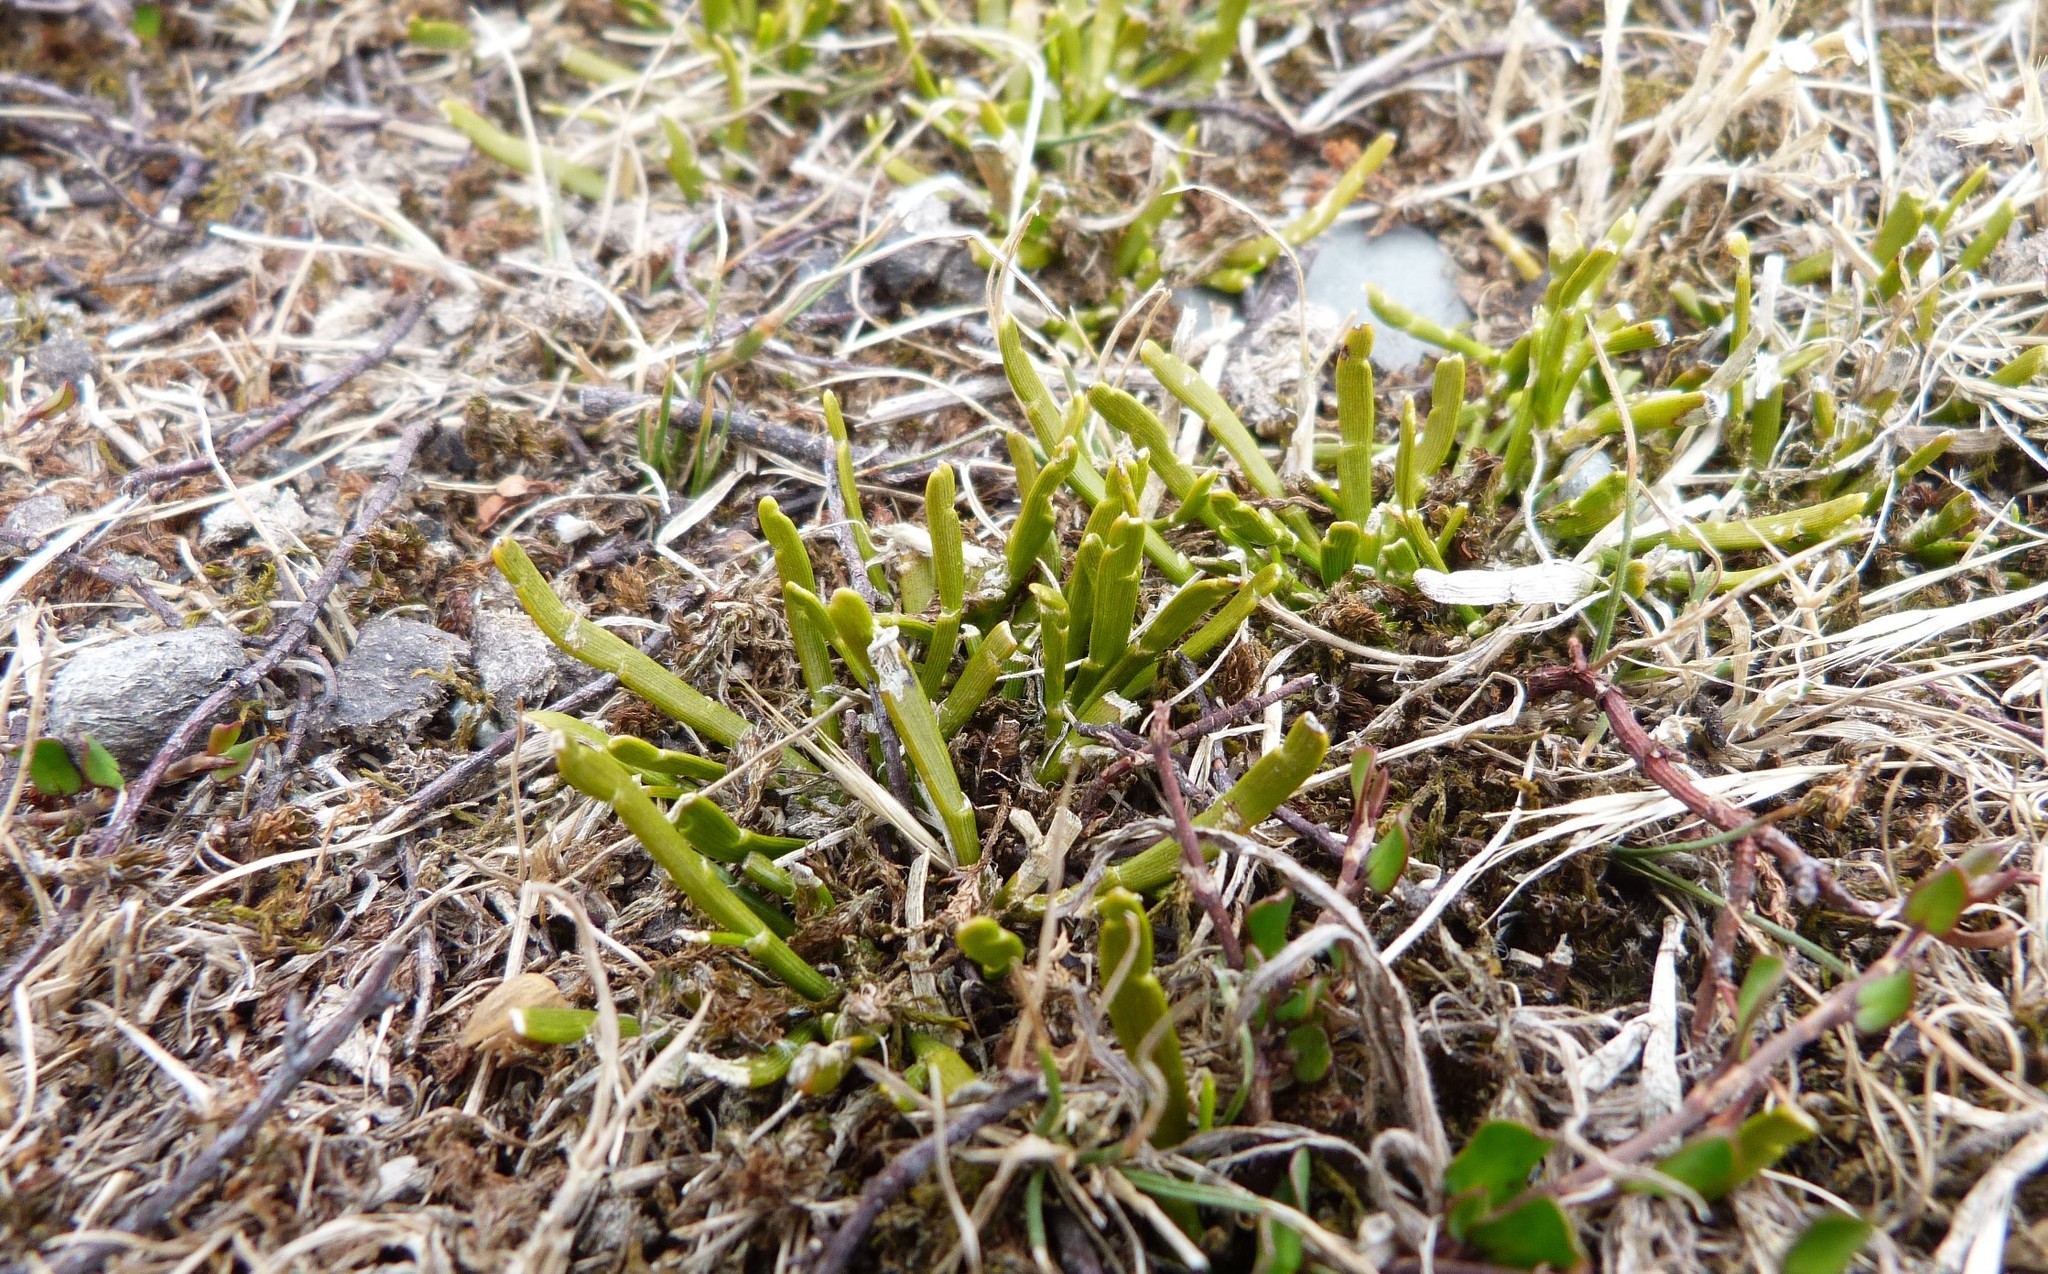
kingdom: Plantae
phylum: Tracheophyta
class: Magnoliopsida
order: Fabales
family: Fabaceae
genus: Carmichaelia
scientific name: Carmichaelia corrugata
